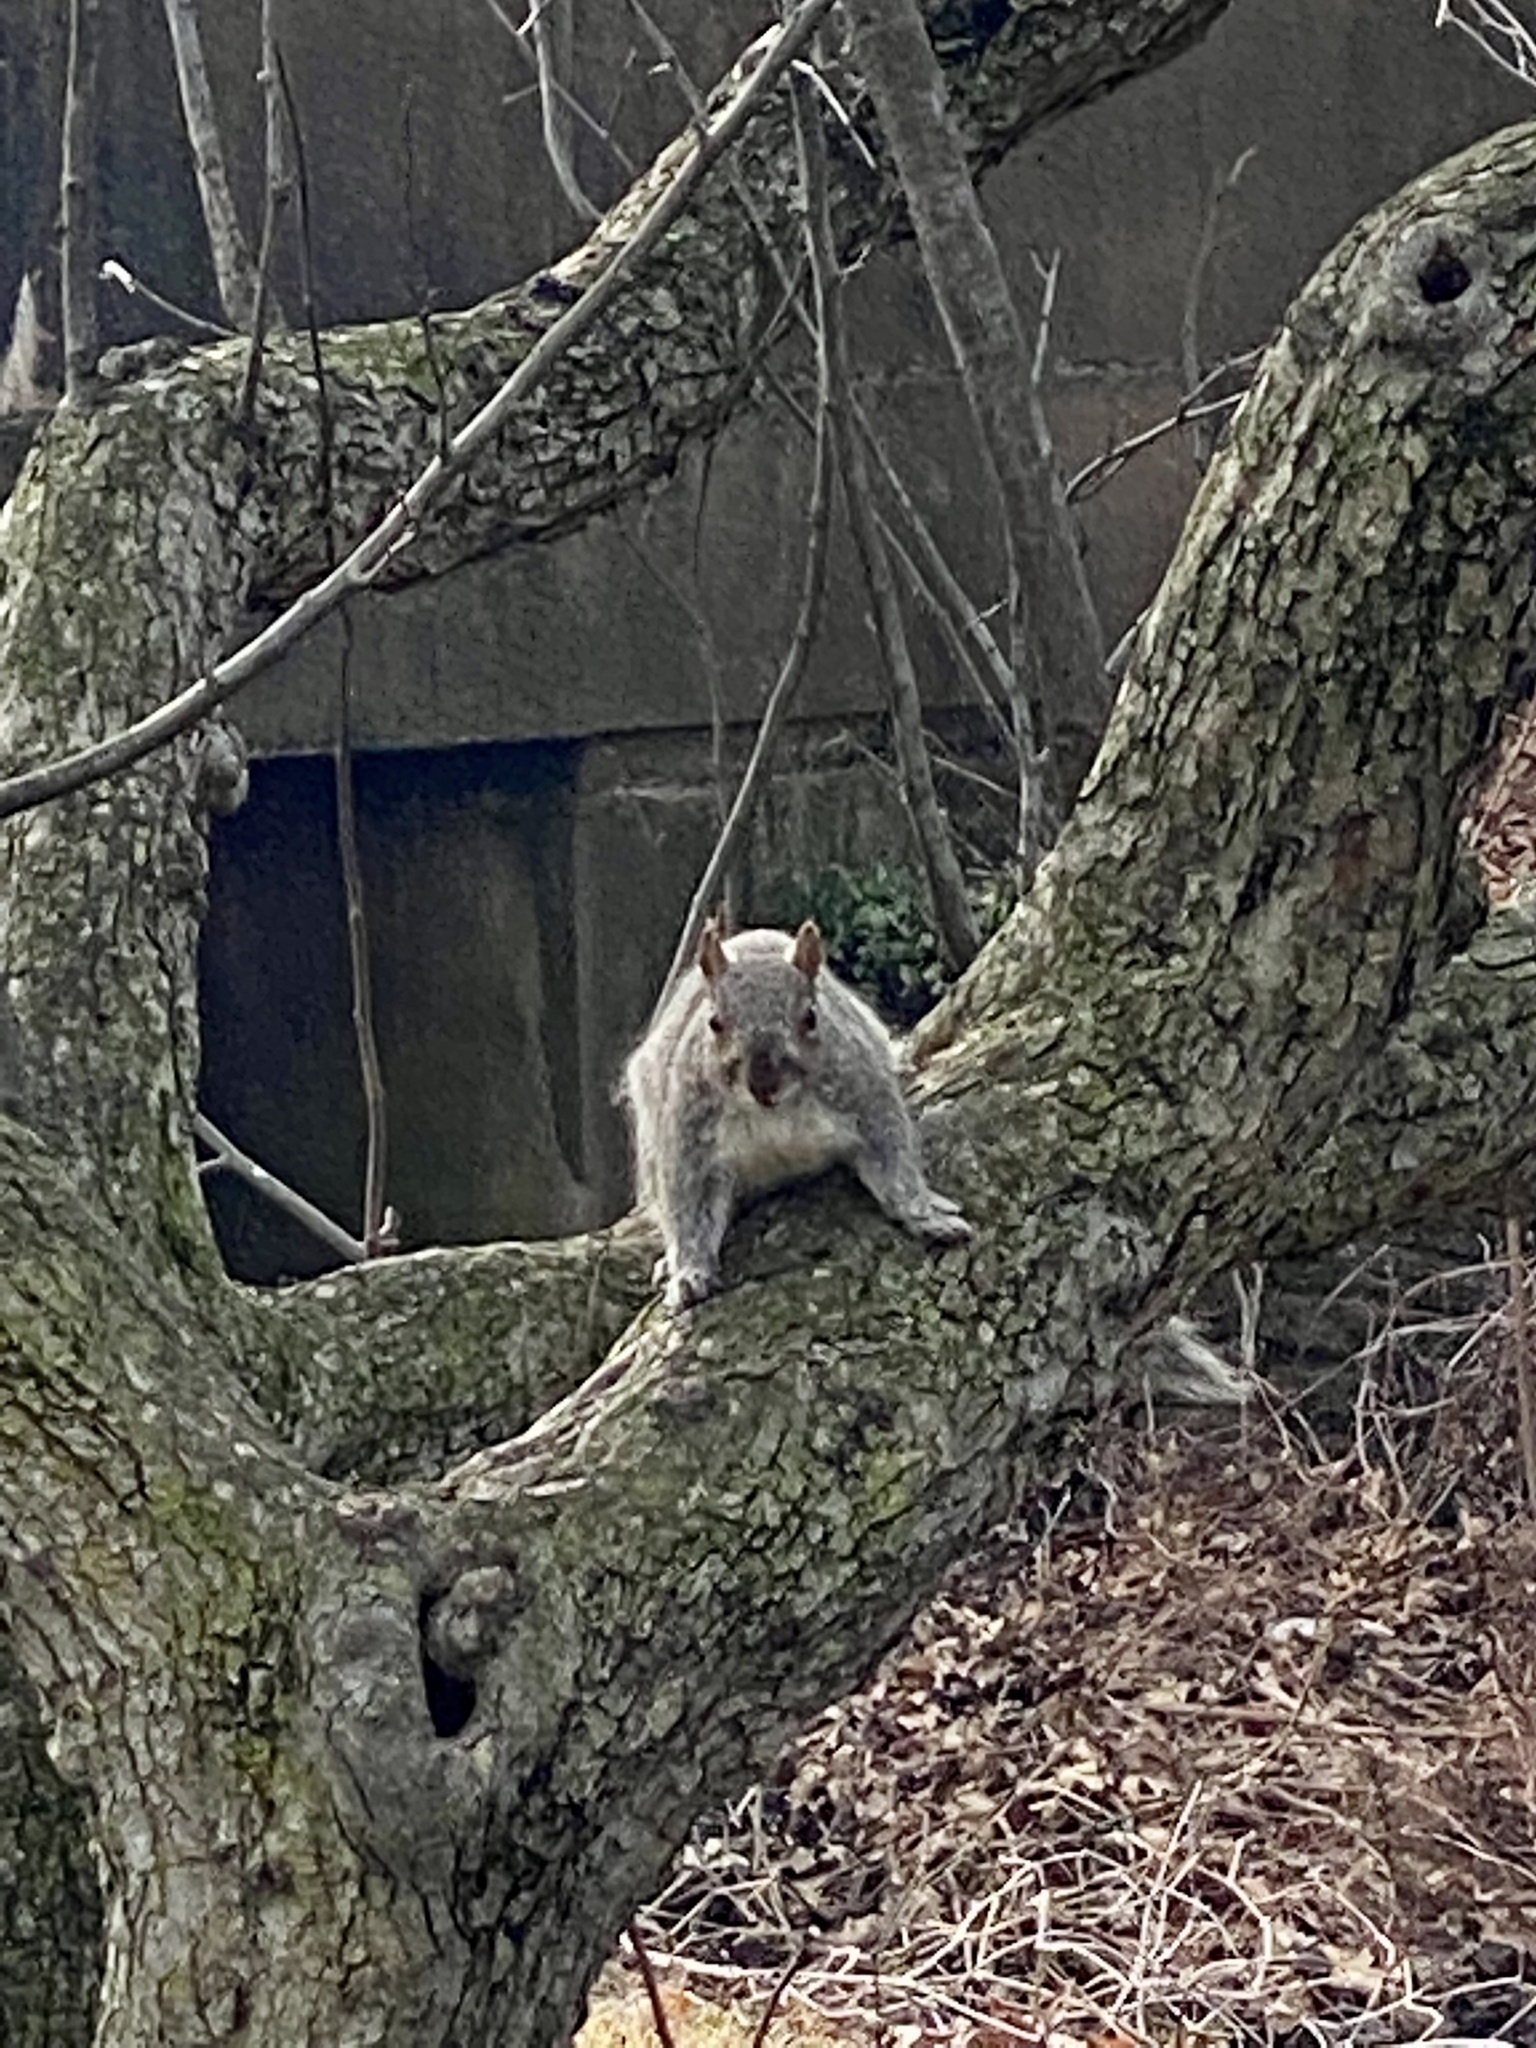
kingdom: Animalia
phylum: Chordata
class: Mammalia
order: Rodentia
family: Sciuridae
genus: Sciurus
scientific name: Sciurus carolinensis
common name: Eastern gray squirrel
